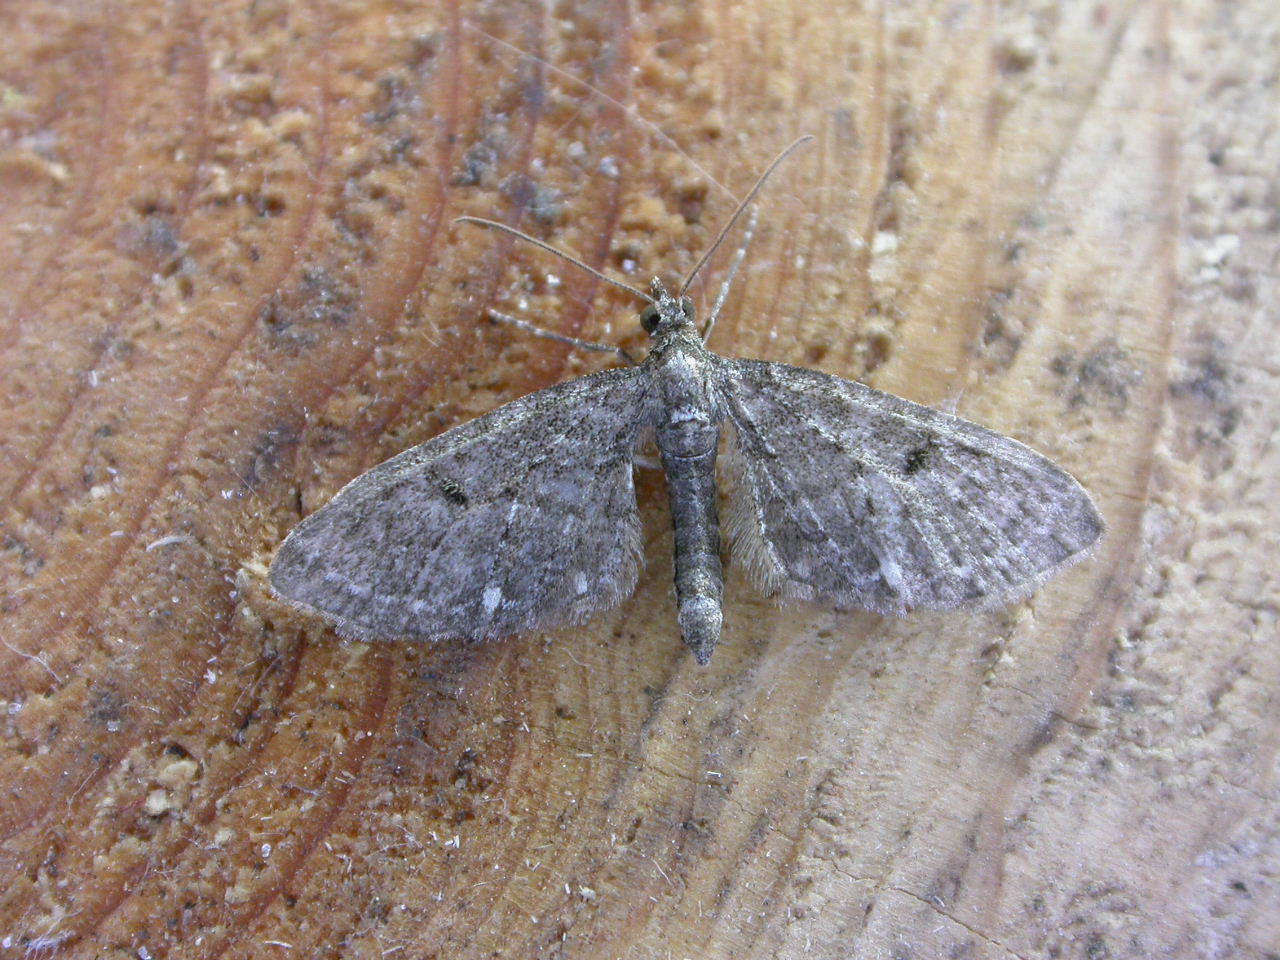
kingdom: Animalia
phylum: Arthropoda
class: Insecta
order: Lepidoptera
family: Geometridae
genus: Eupithecia
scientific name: Eupithecia tripunctaria
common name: White-spotted pug
